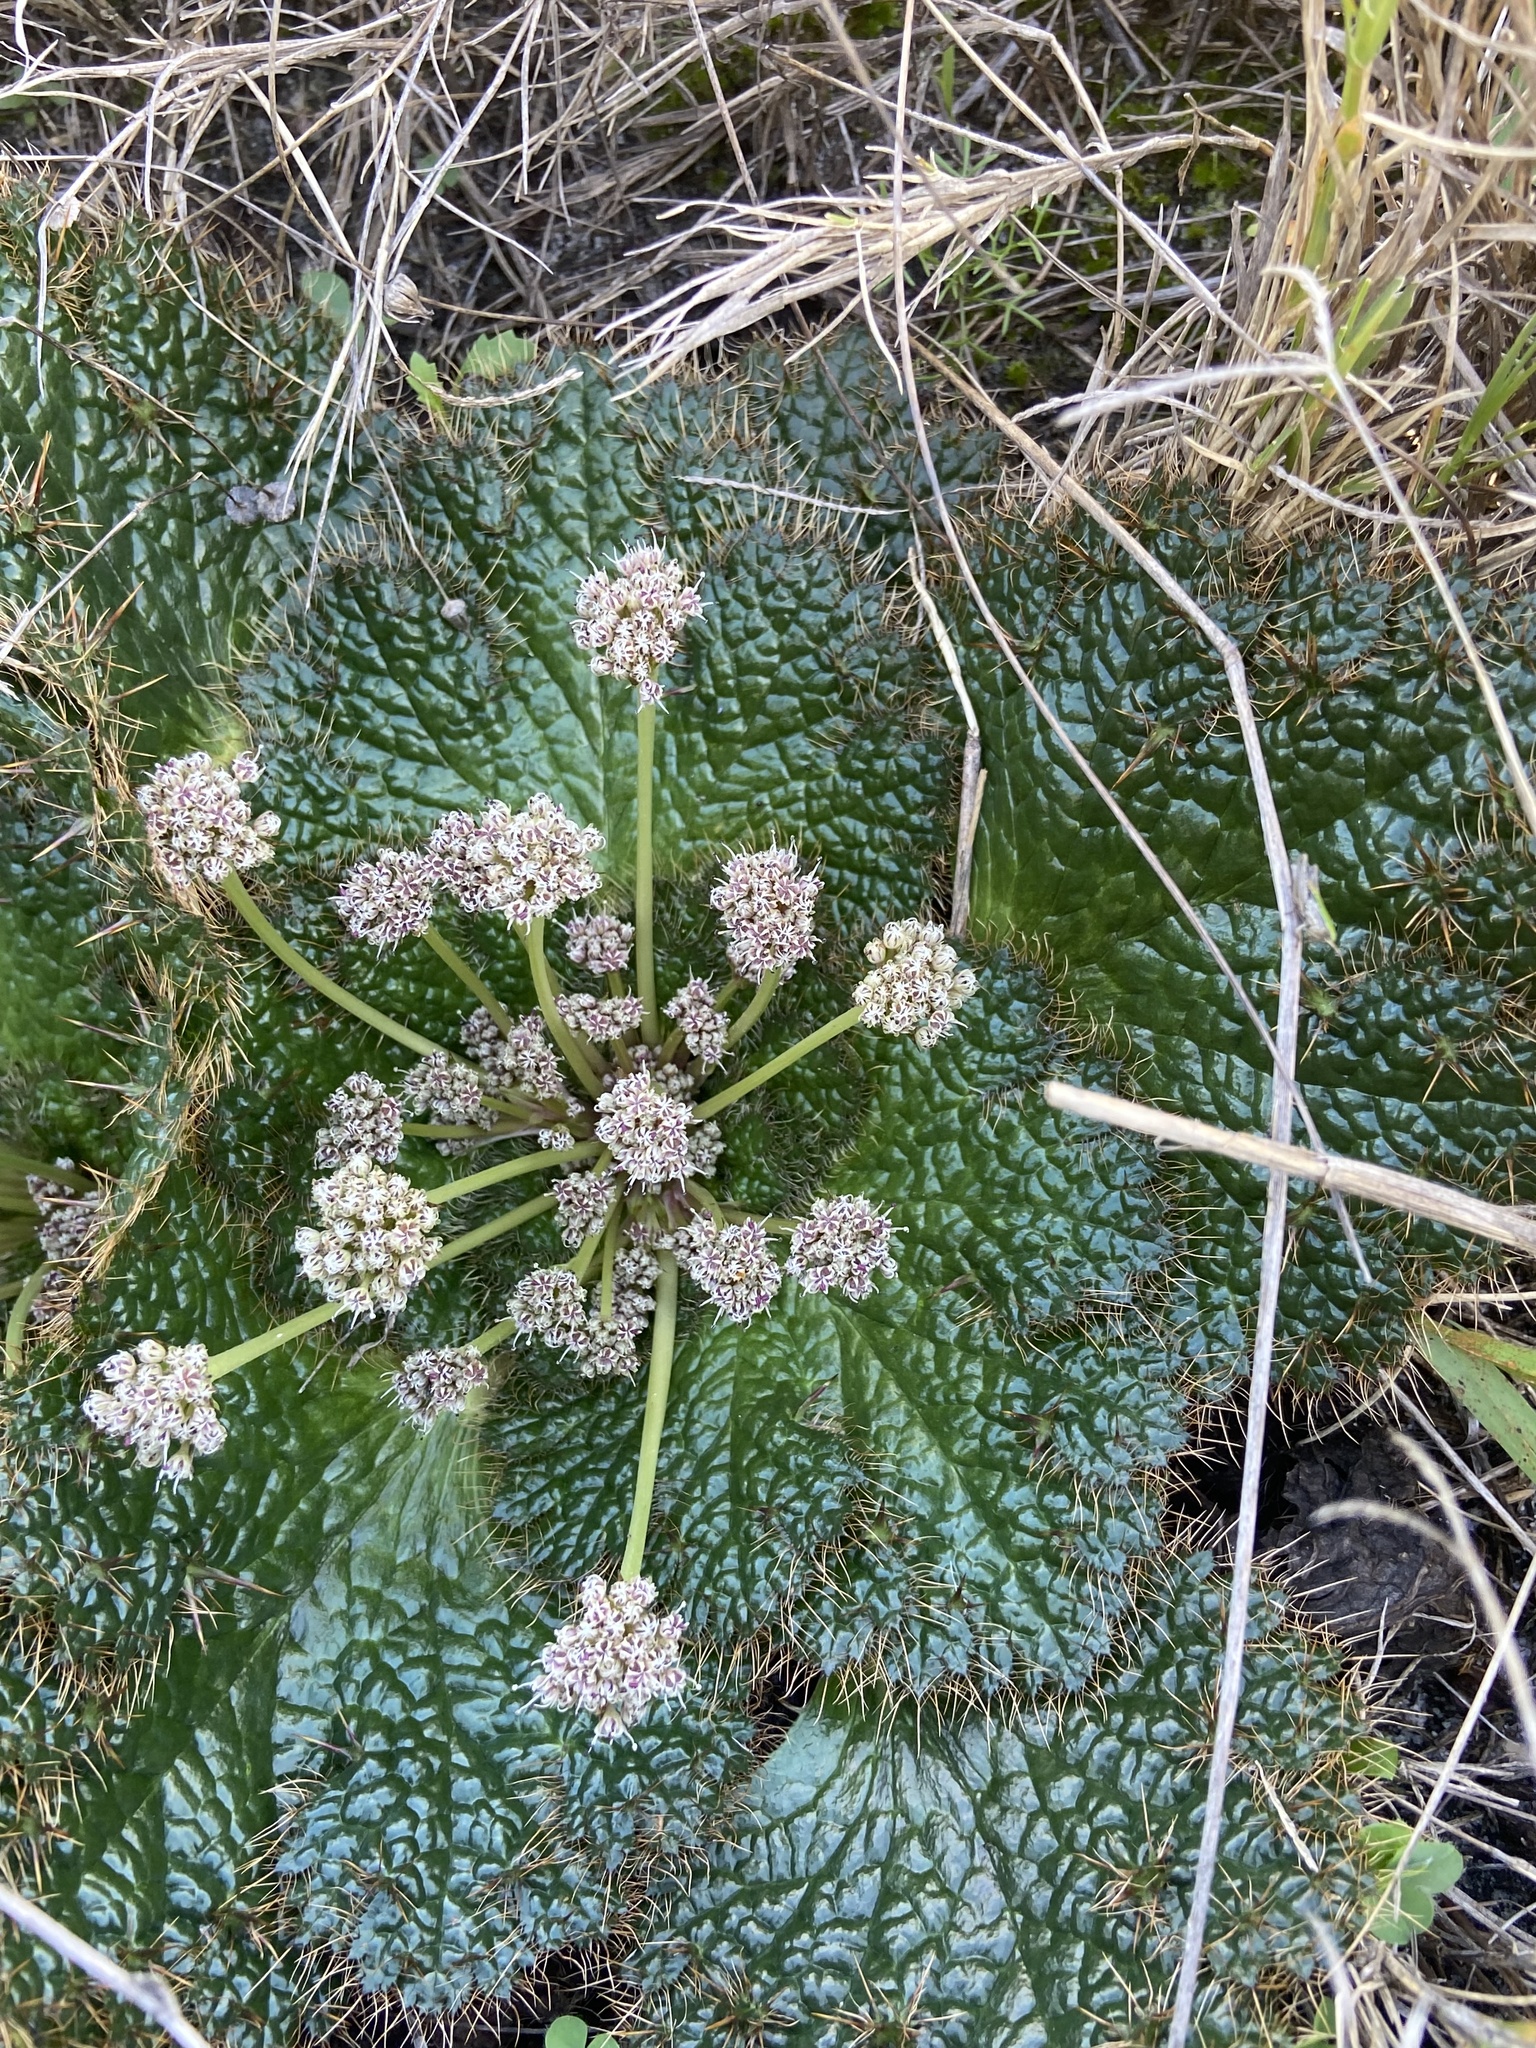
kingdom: Plantae
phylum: Tracheophyta
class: Magnoliopsida
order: Apiales
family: Apiaceae
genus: Arctopus
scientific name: Arctopus echinatus
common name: Platdoring
